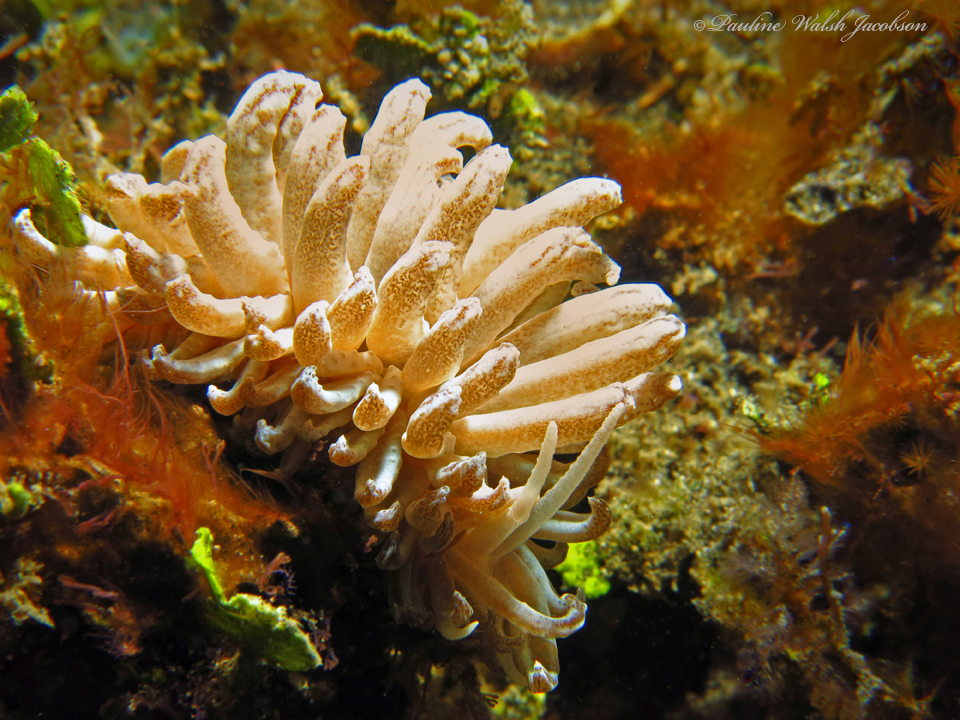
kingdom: Animalia
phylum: Mollusca
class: Gastropoda
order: Nudibranchia
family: Myrrhinidae
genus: Phyllodesmium
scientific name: Phyllodesmium hyalinum
